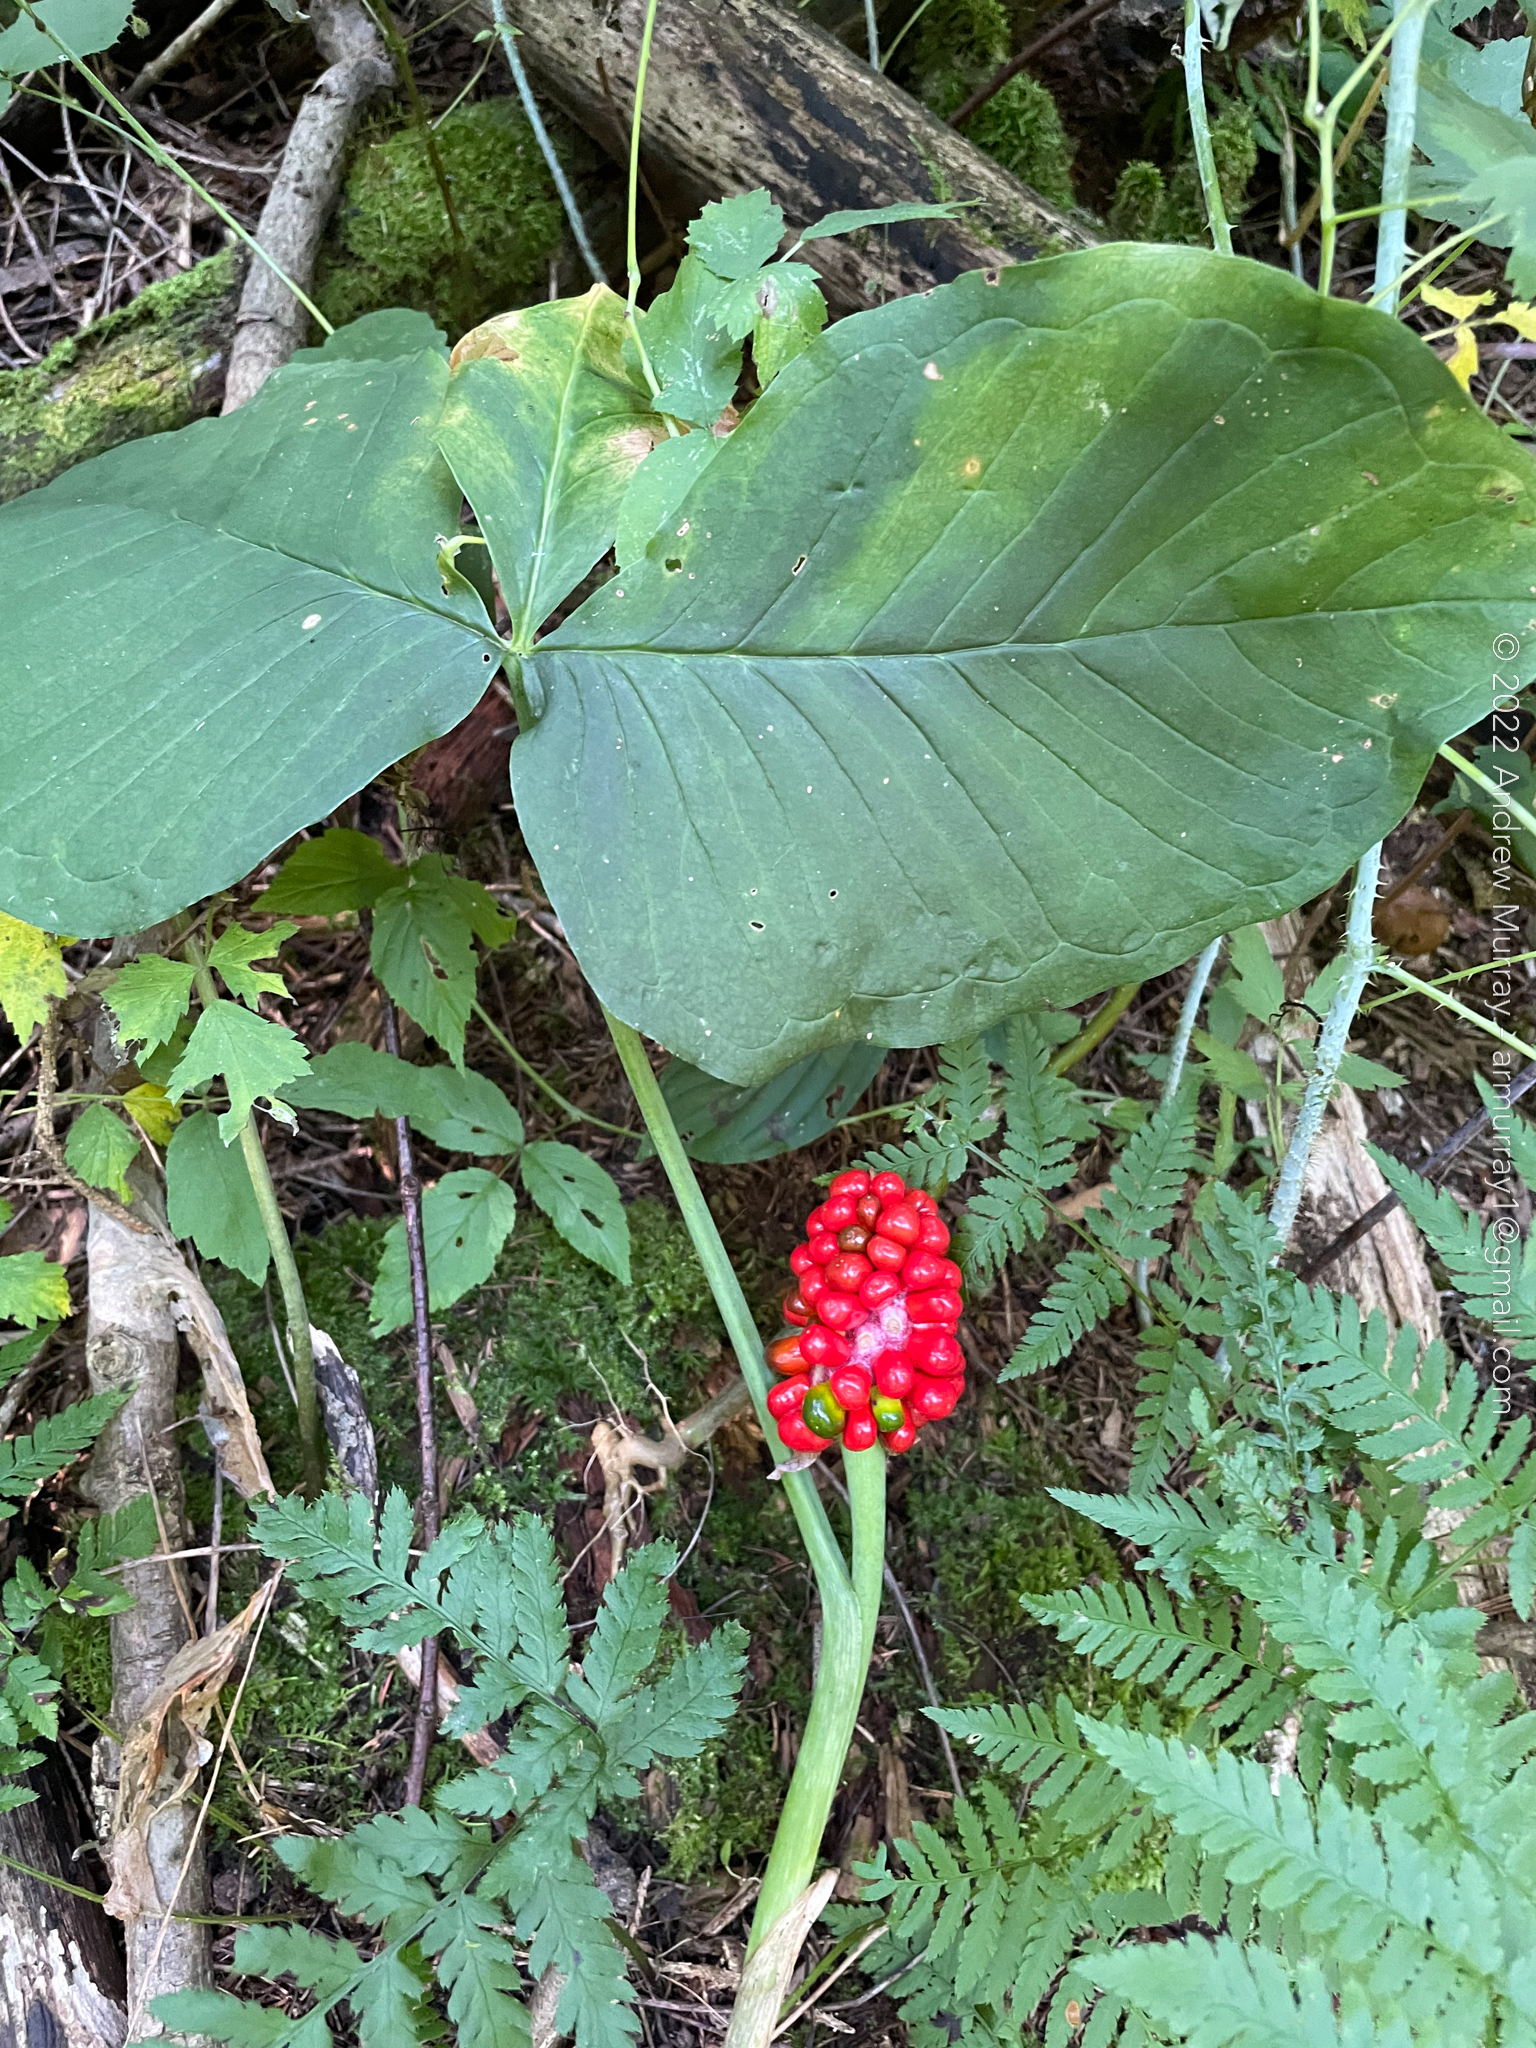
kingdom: Plantae
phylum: Tracheophyta
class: Liliopsida
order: Alismatales
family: Araceae
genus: Arisaema
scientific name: Arisaema triphyllum
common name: Jack-in-the-pulpit
